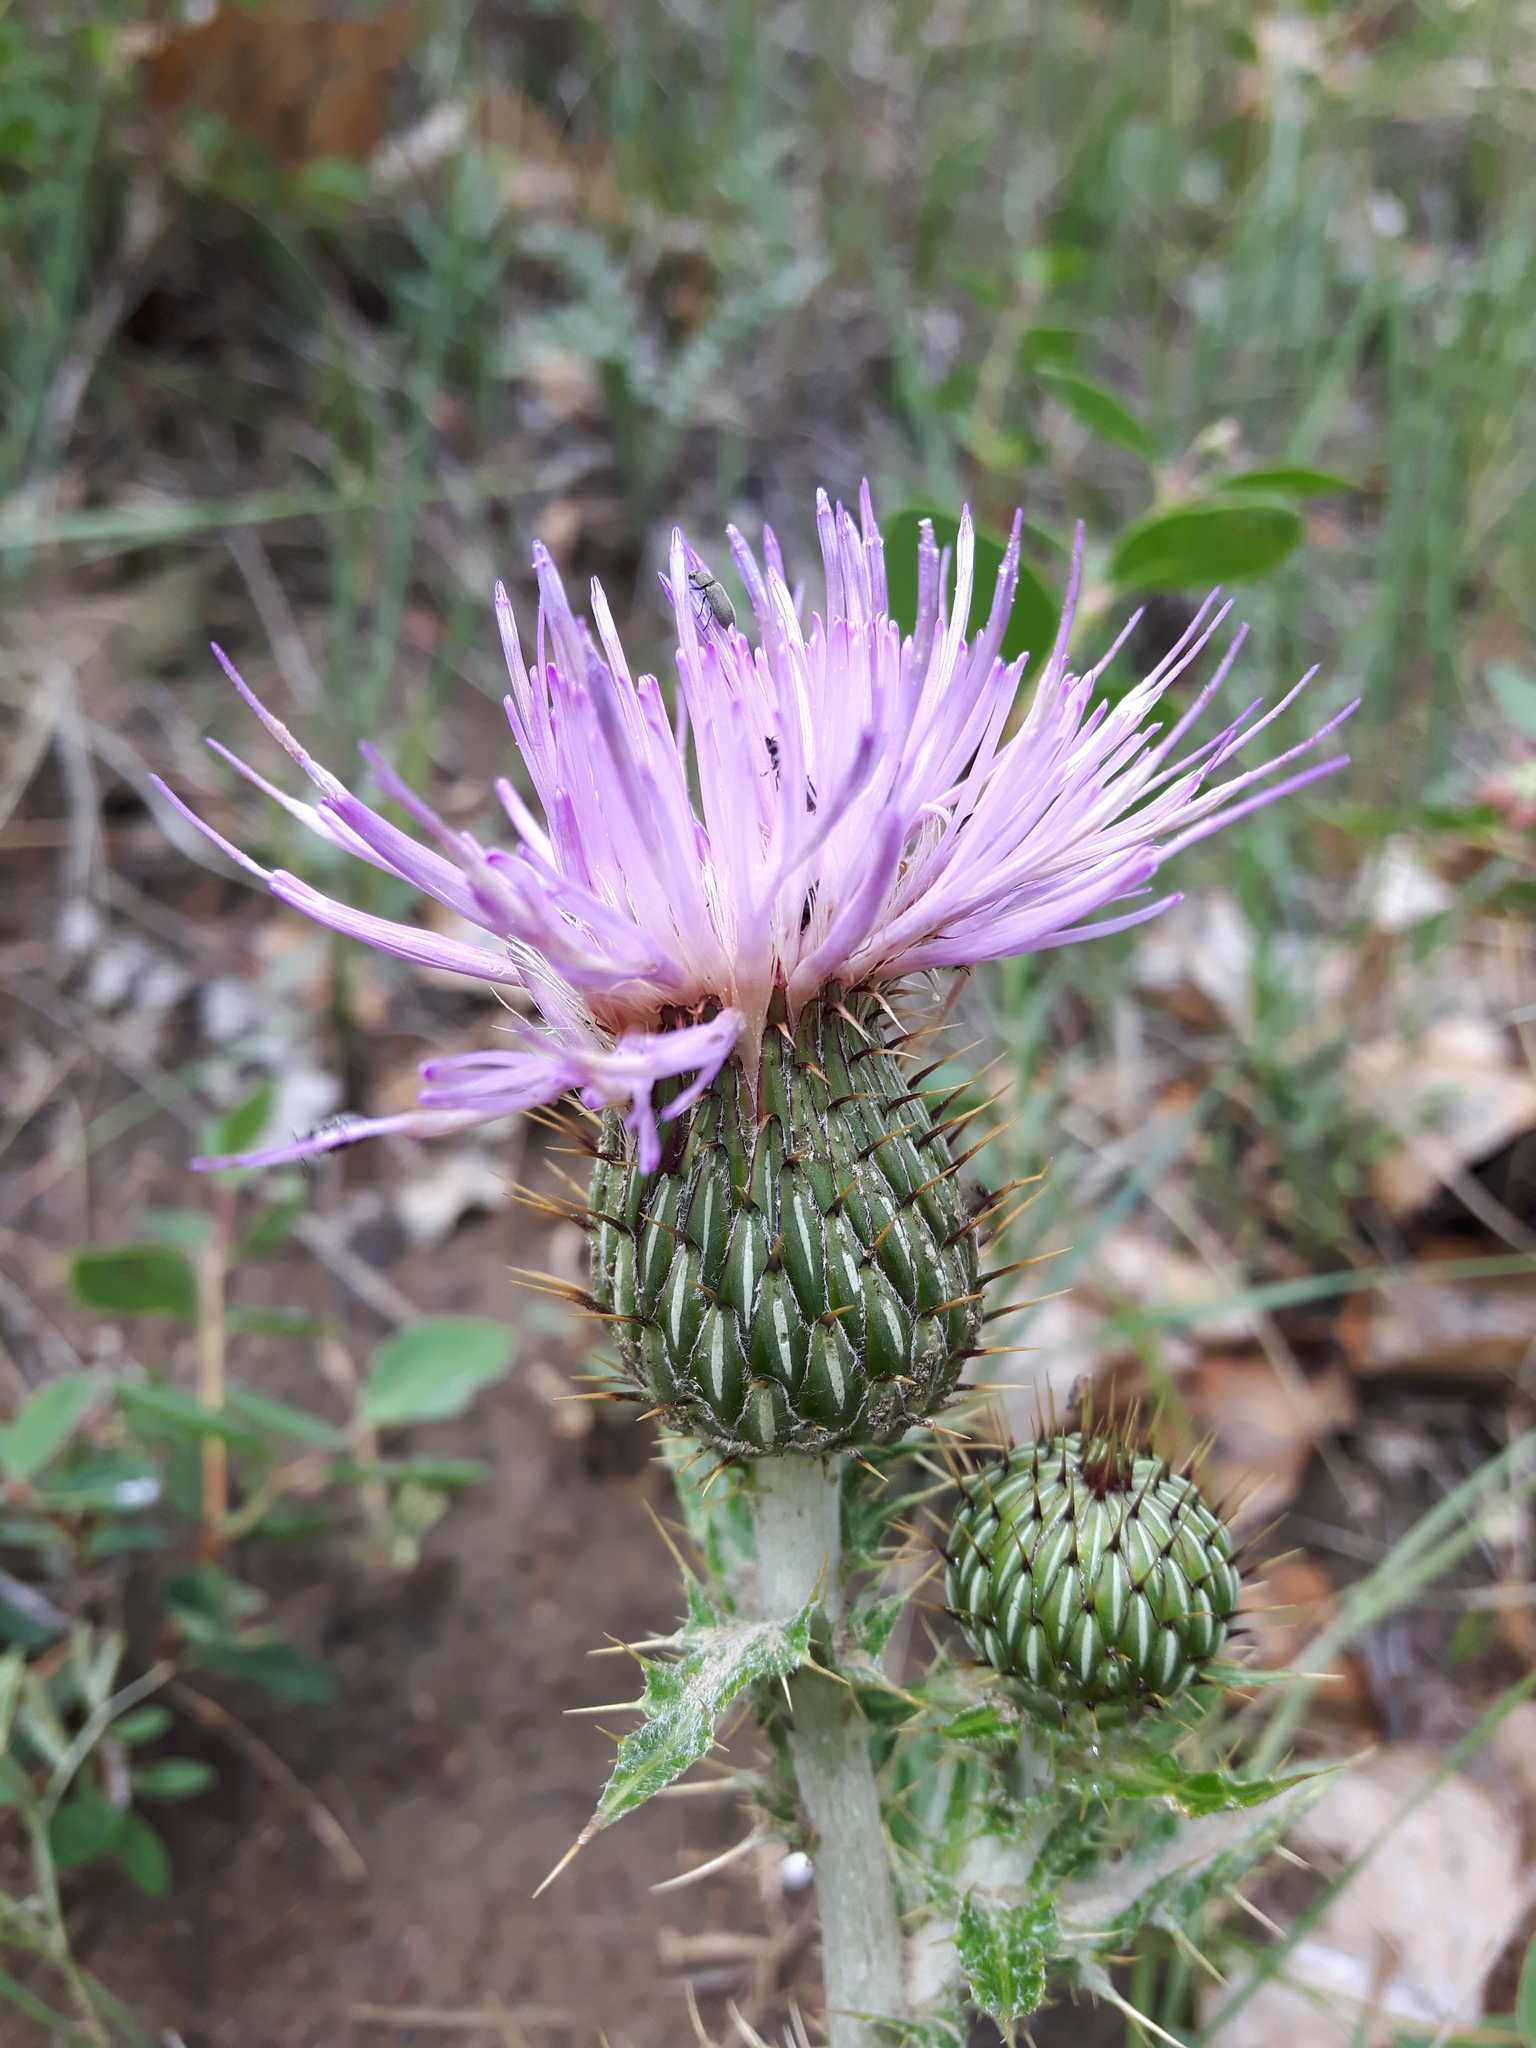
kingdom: Plantae
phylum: Tracheophyta
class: Magnoliopsida
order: Asterales
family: Asteraceae
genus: Cirsium
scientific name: Cirsium undulatum
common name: Pasture thistle
